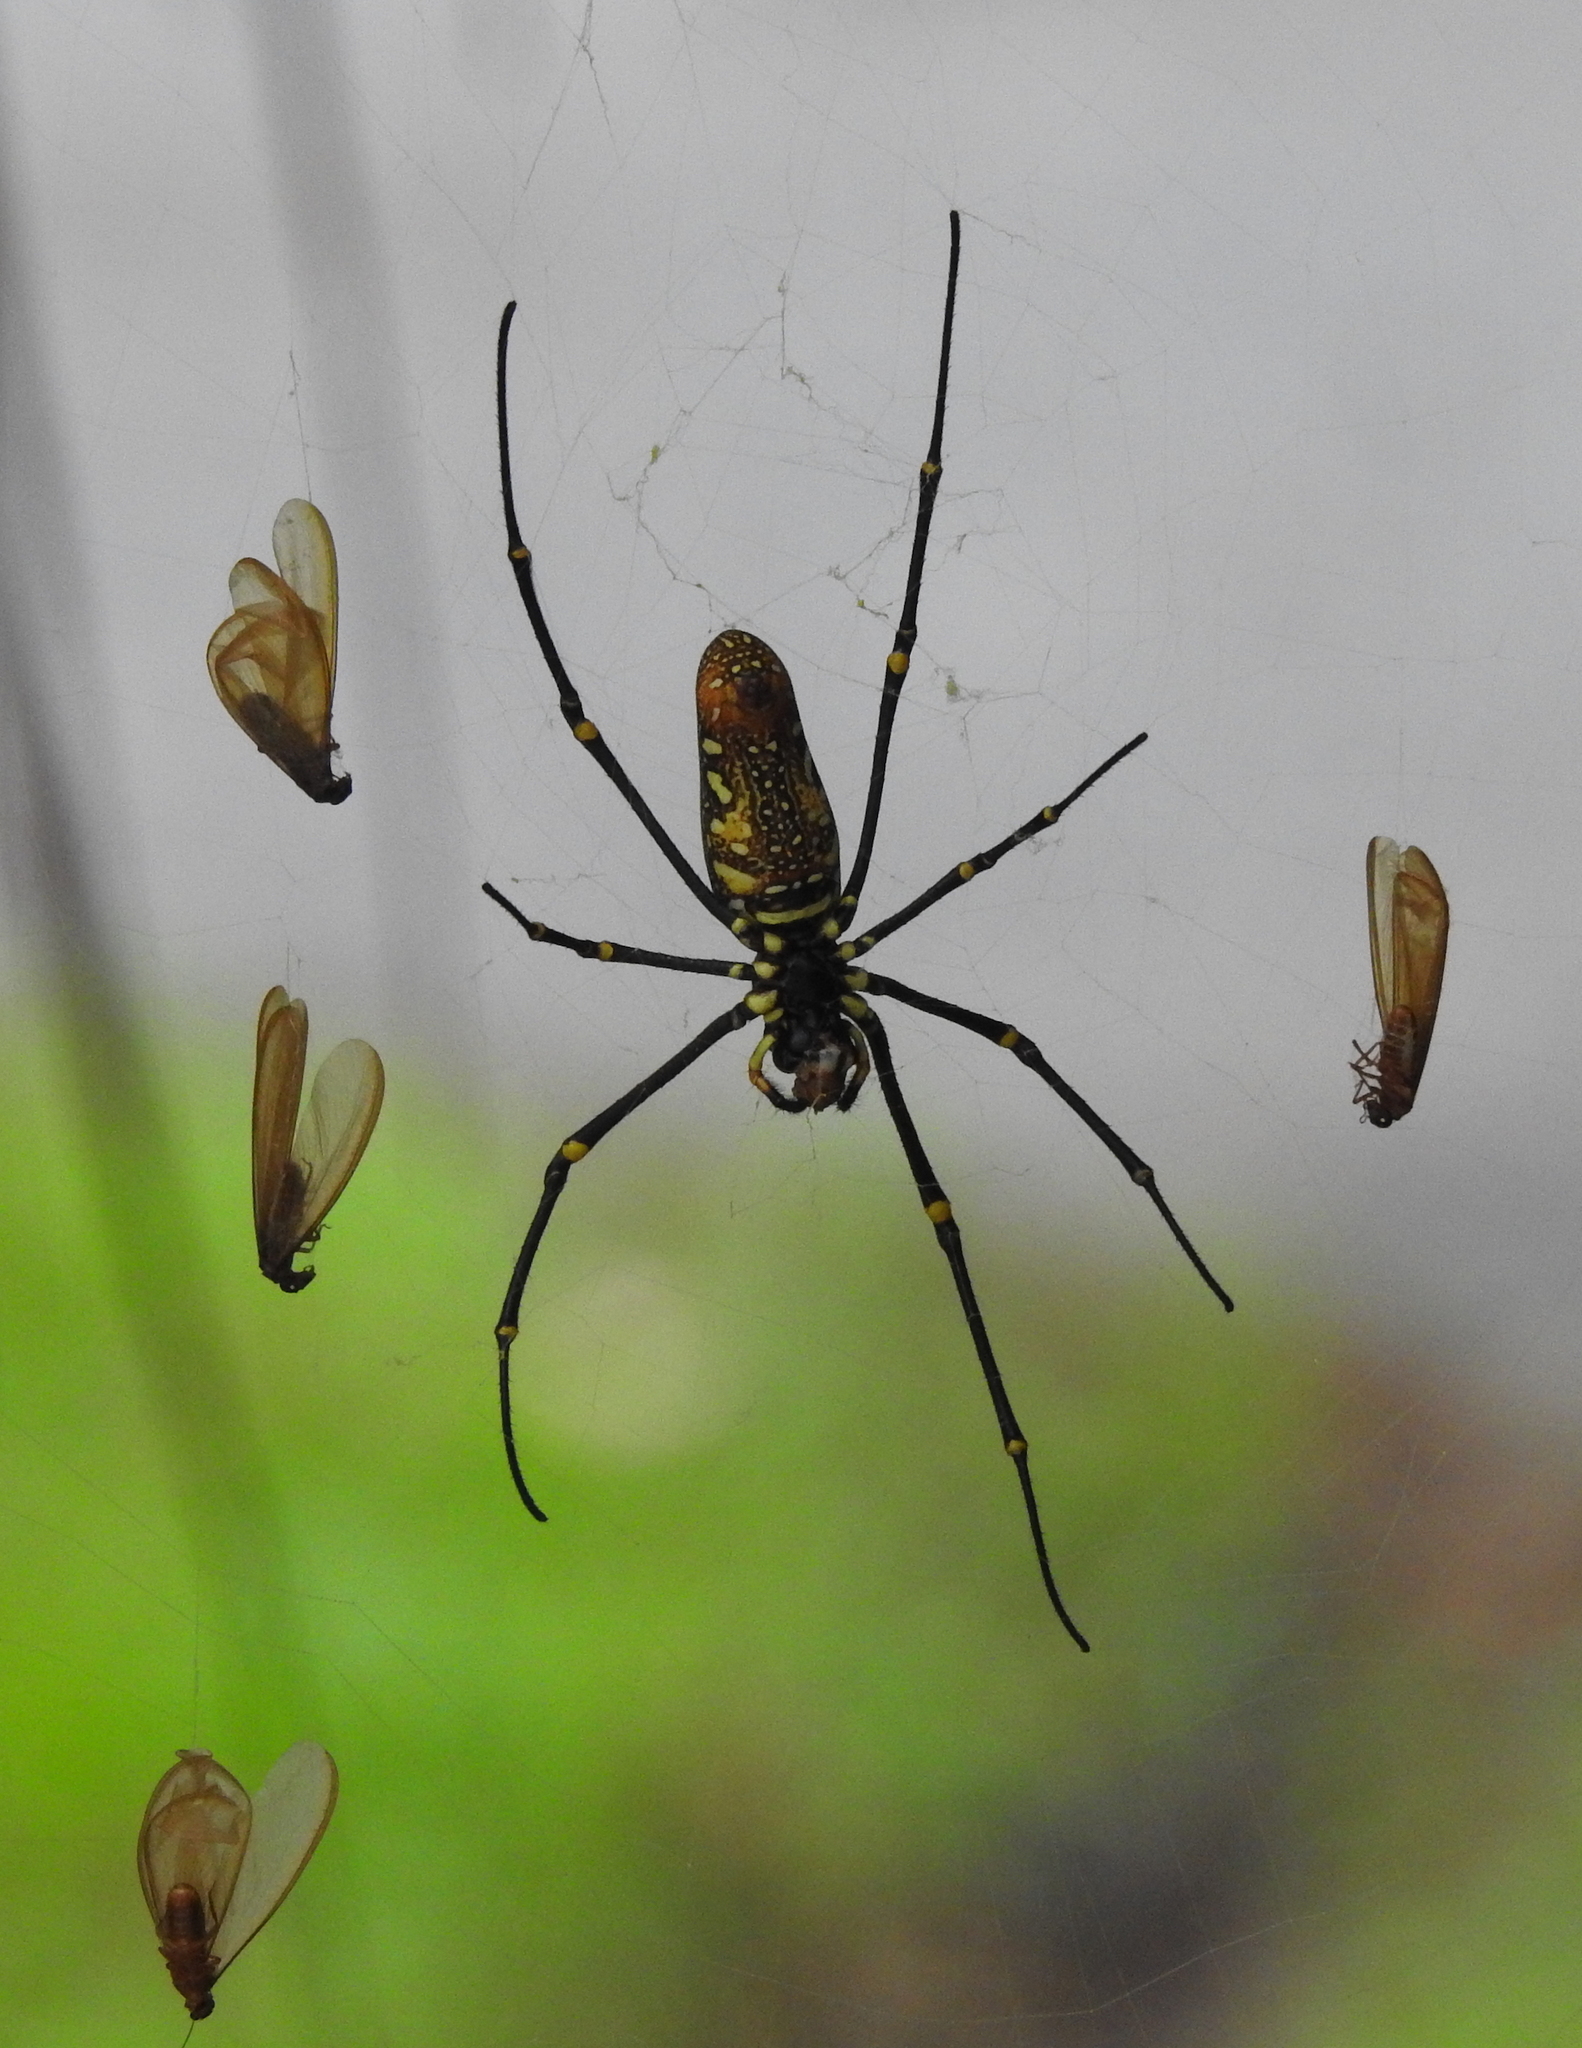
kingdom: Animalia
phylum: Arthropoda
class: Arachnida
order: Araneae
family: Araneidae
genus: Nephila
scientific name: Nephila pilipes
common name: Giant golden orb weaver
